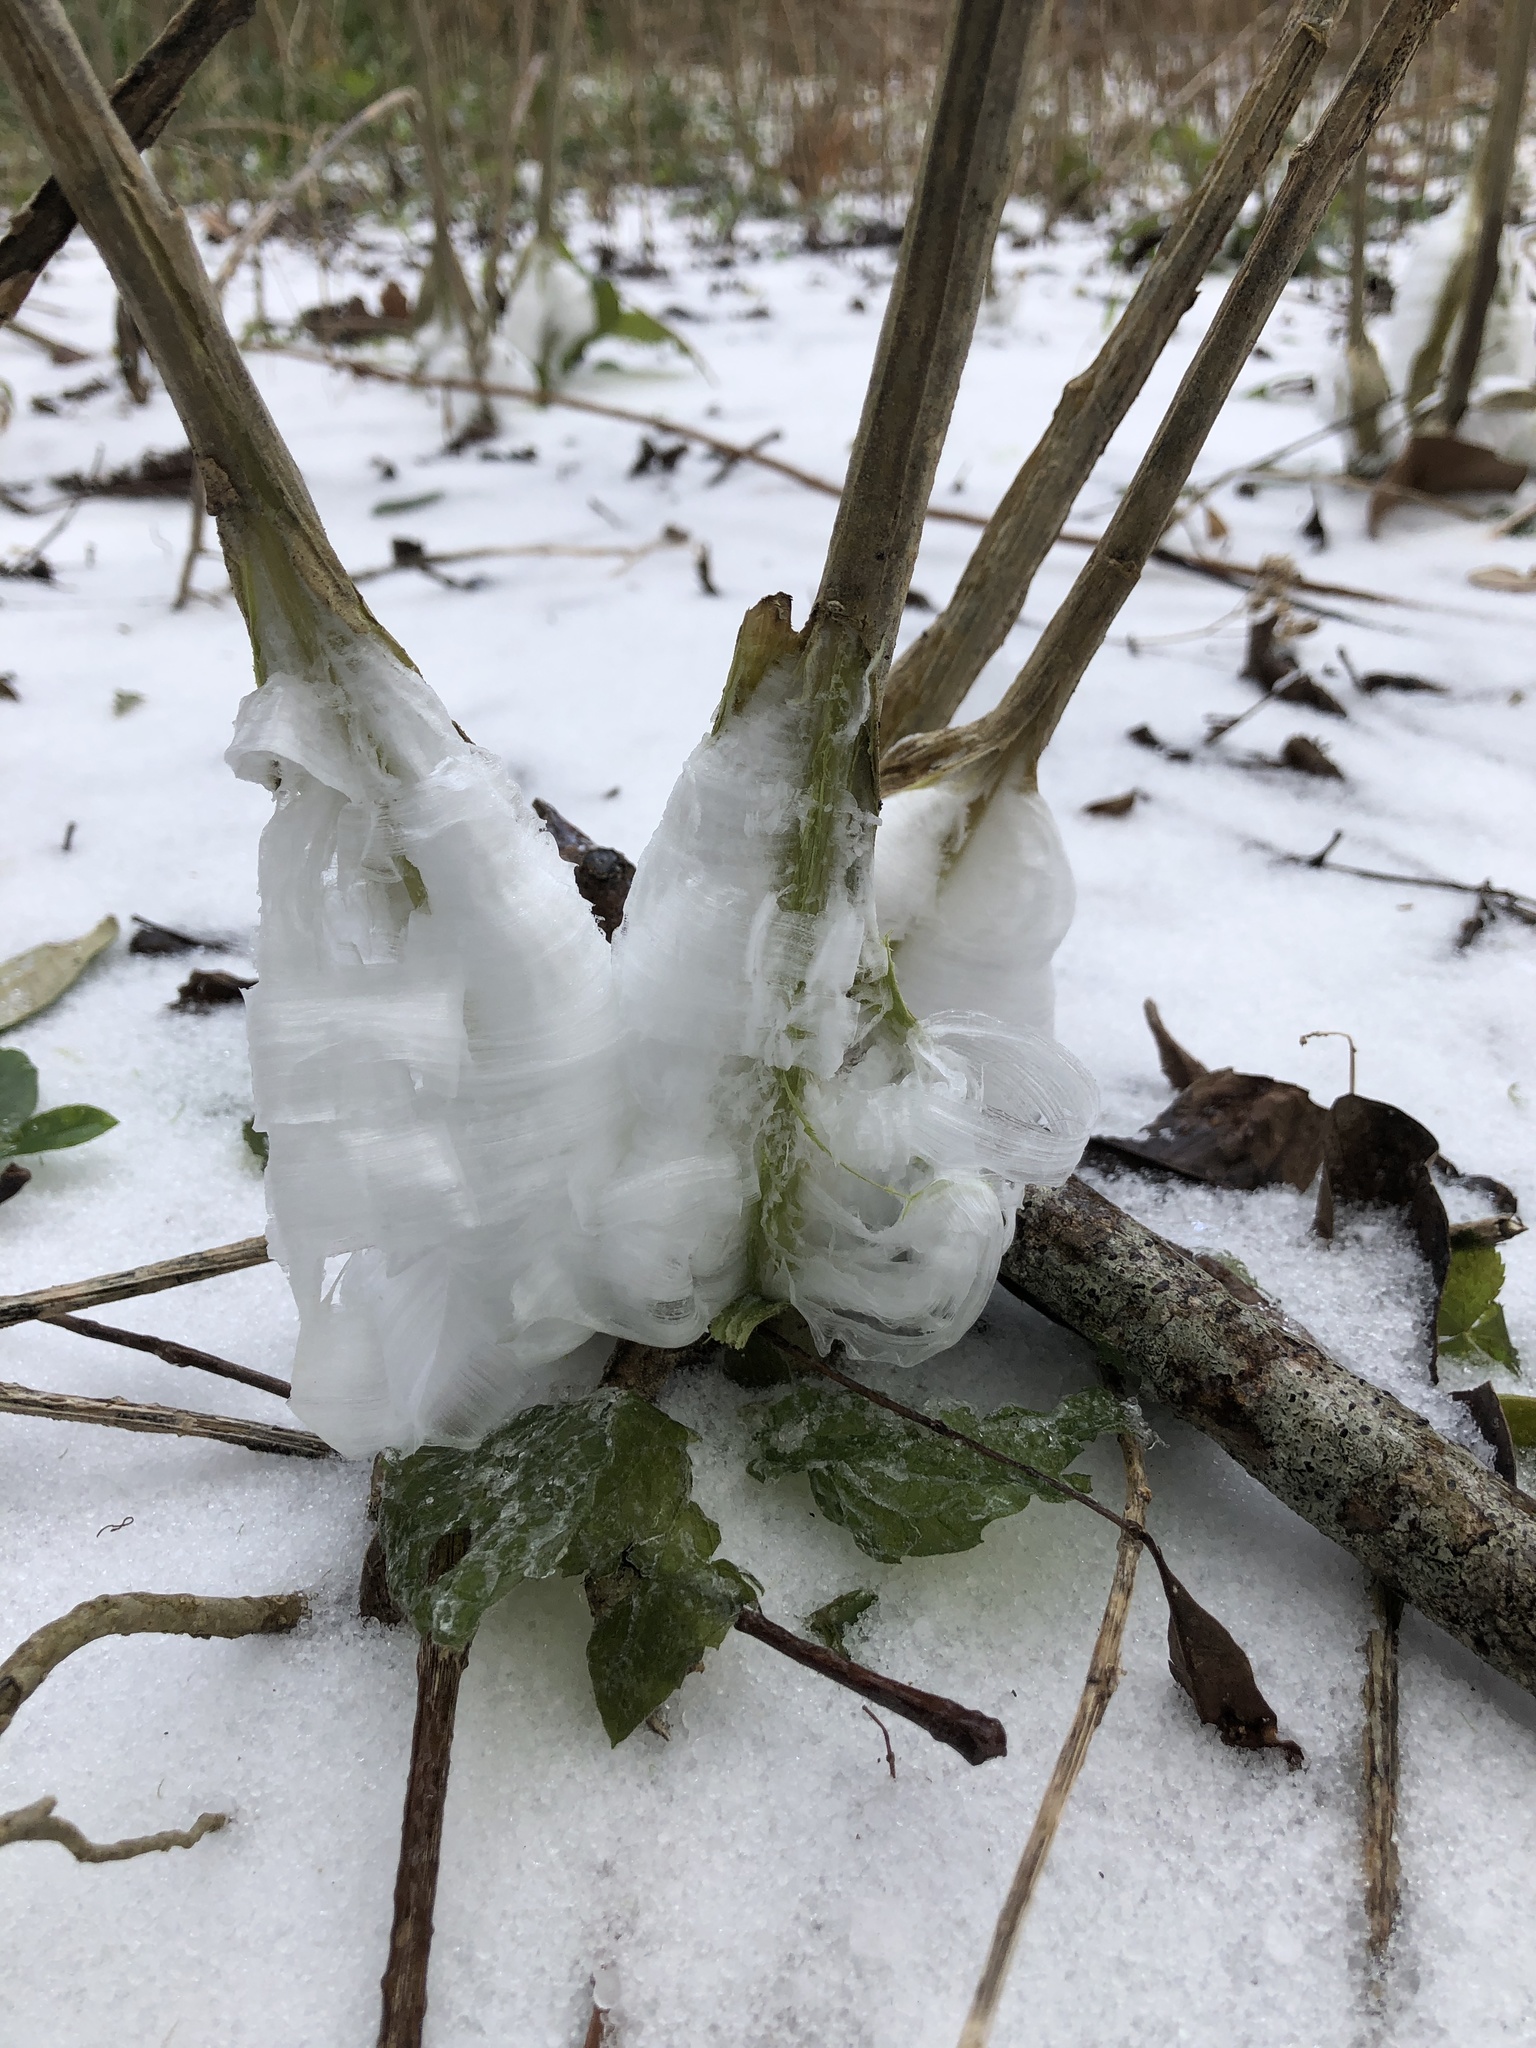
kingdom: Plantae
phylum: Tracheophyta
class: Magnoliopsida
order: Asterales
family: Asteraceae
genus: Verbesina
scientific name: Verbesina virginica
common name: Frostweed
